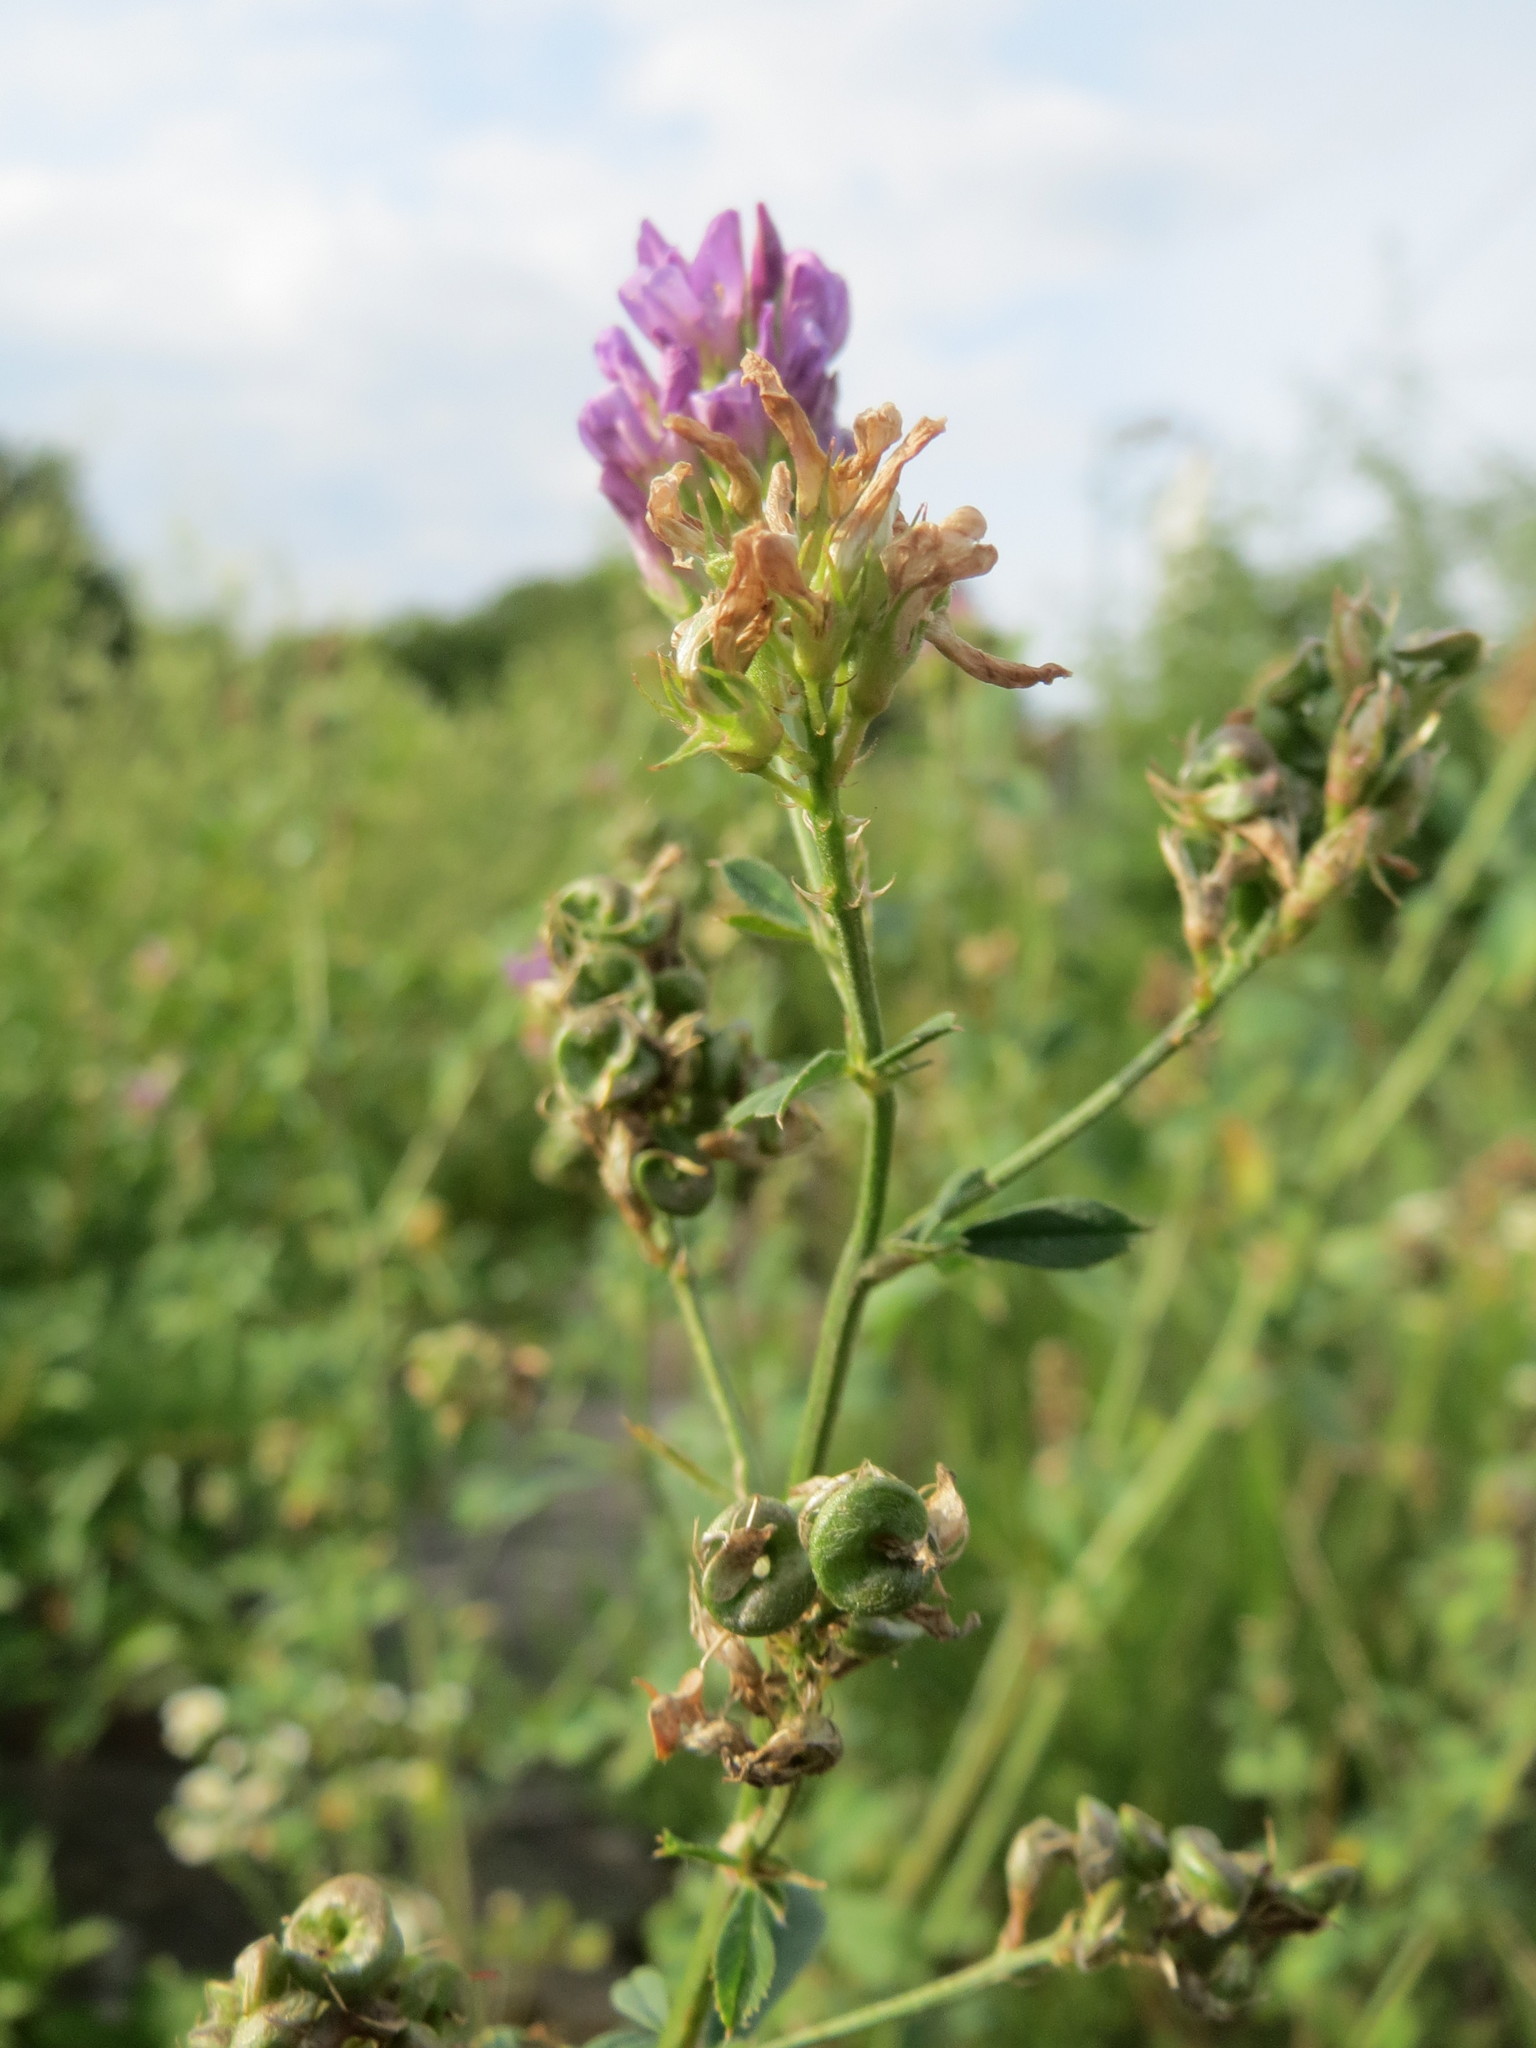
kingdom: Plantae
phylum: Tracheophyta
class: Magnoliopsida
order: Fabales
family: Fabaceae
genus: Medicago
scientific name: Medicago sativa
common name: Alfalfa
